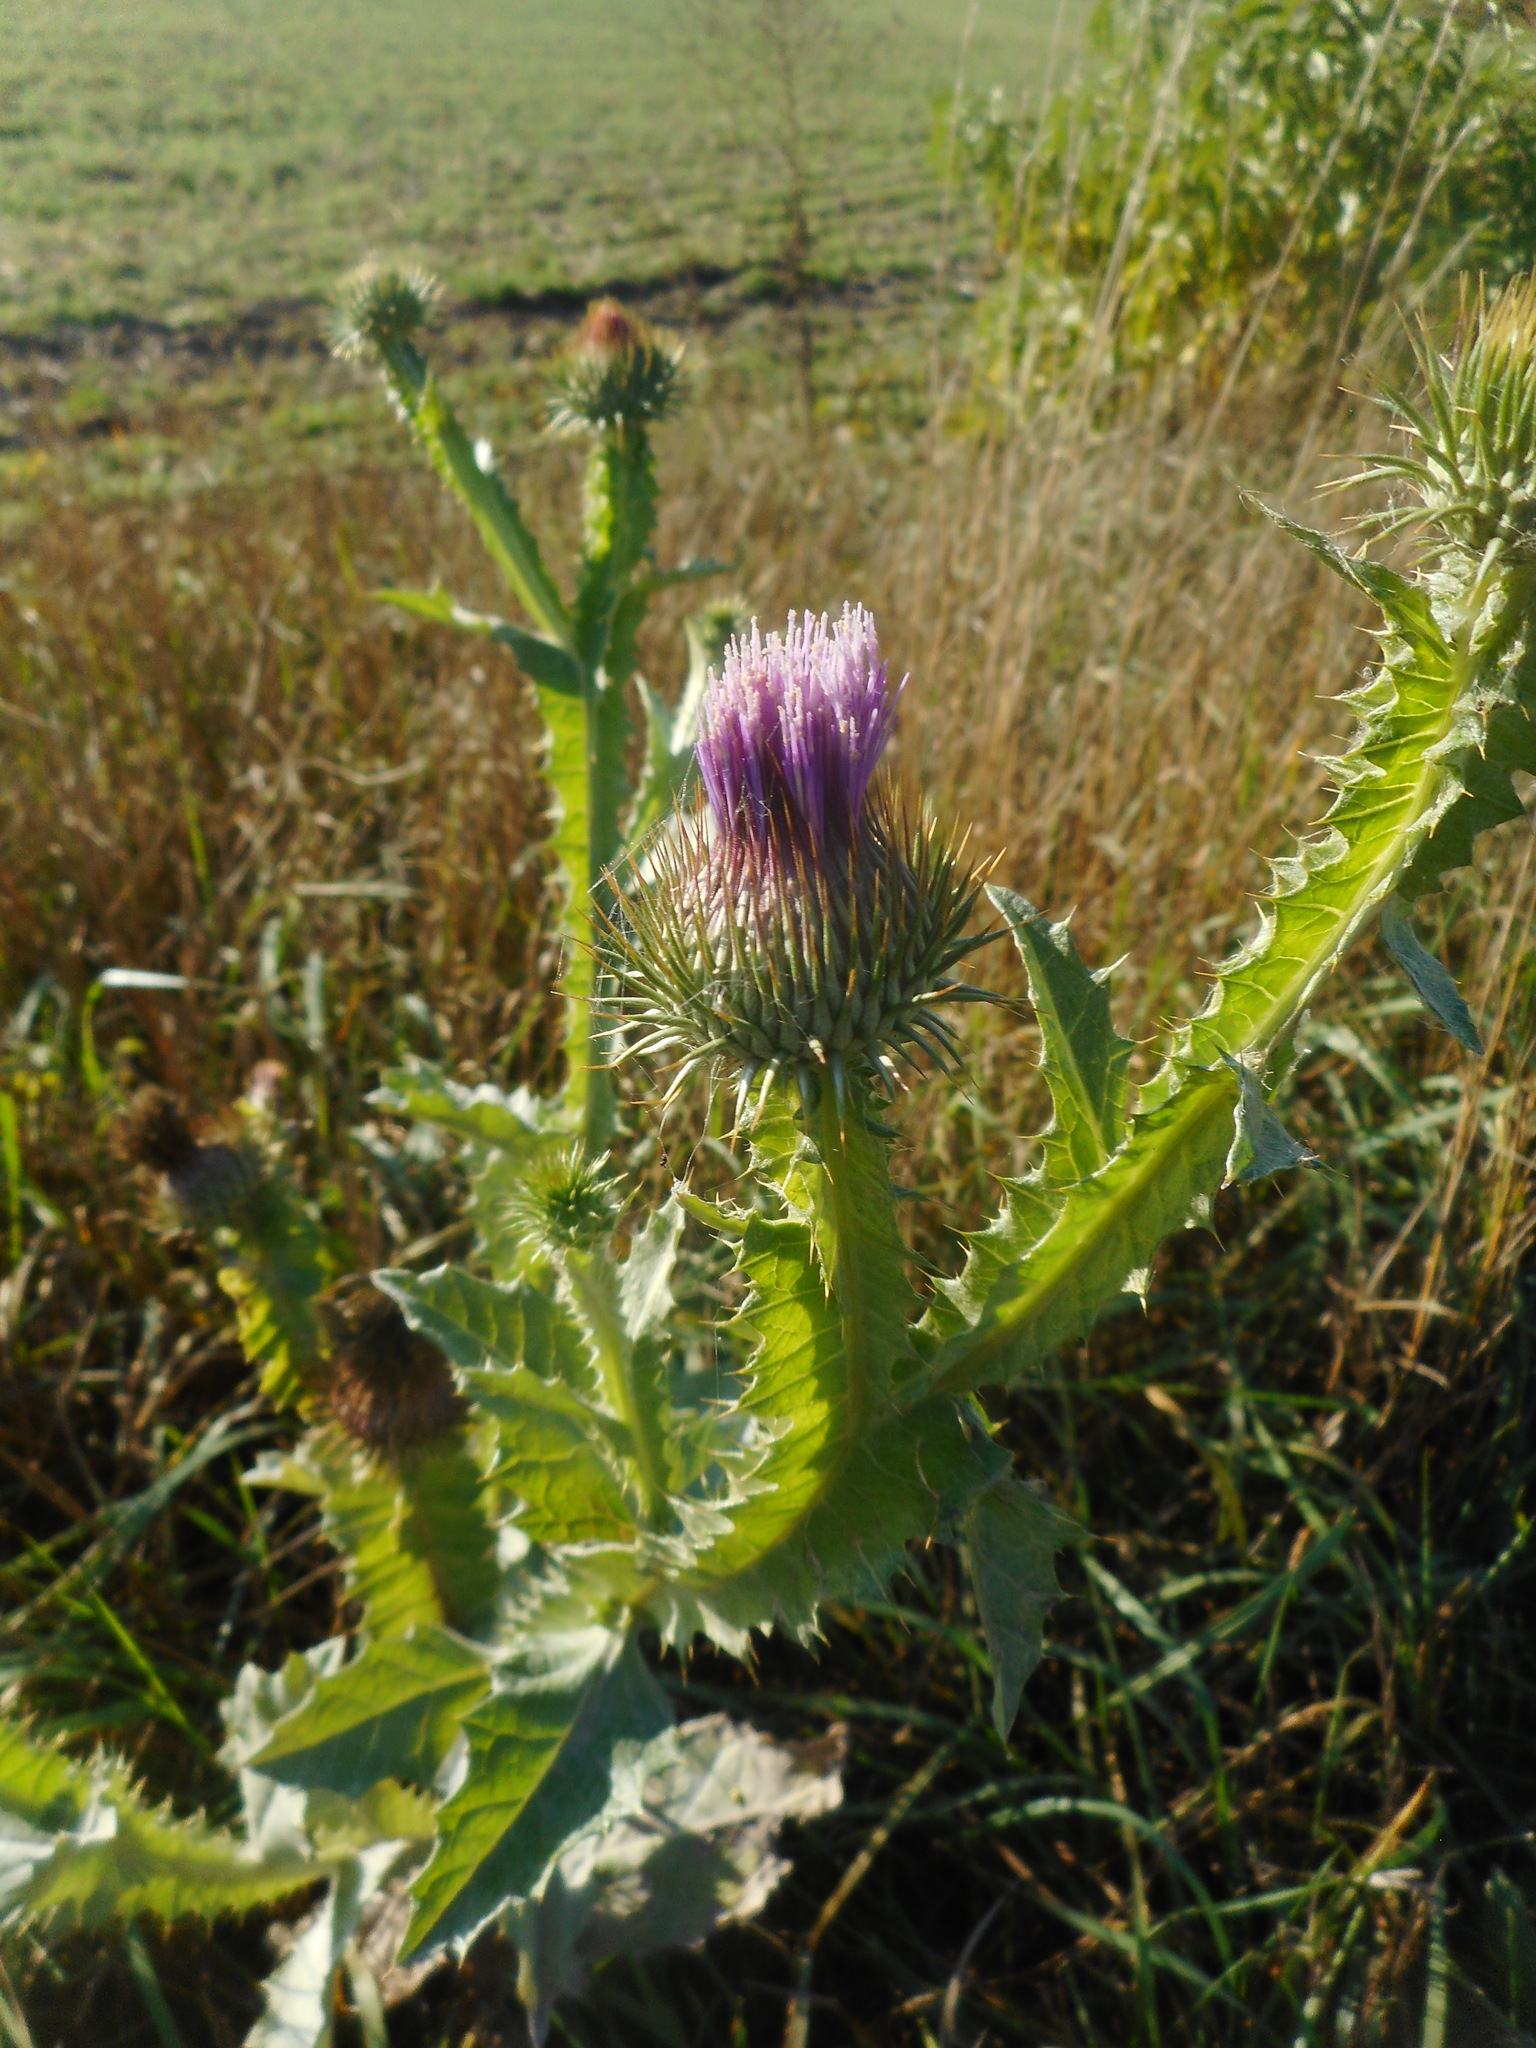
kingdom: Plantae
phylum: Tracheophyta
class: Magnoliopsida
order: Asterales
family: Asteraceae
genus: Onopordum
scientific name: Onopordum acanthium
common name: Scotch thistle
